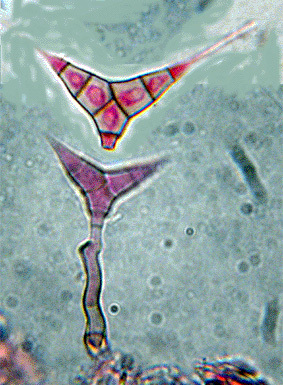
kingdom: Fungi
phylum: Ascomycota
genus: Diplocladiella
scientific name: Diplocladiella scalaroides
